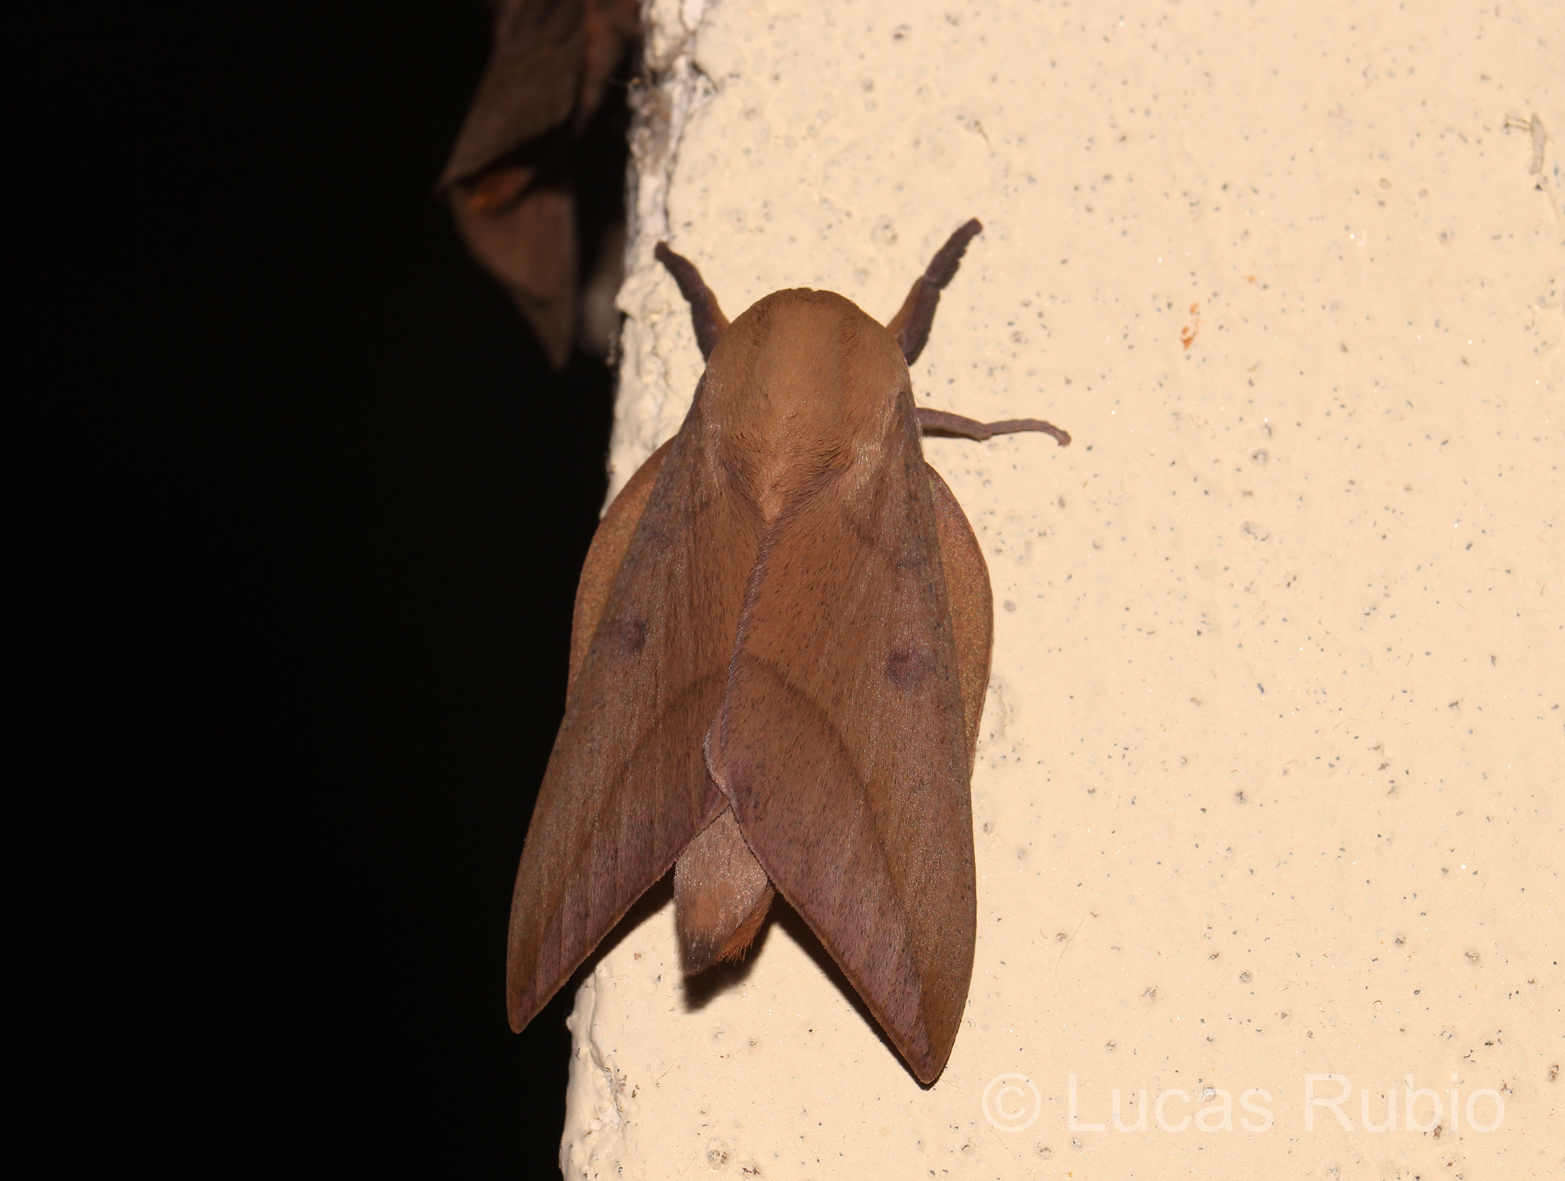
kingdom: Animalia
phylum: Arthropoda
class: Insecta
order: Lepidoptera
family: Saturniidae
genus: Adeloneivaia
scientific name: Adeloneivaia subangulata
